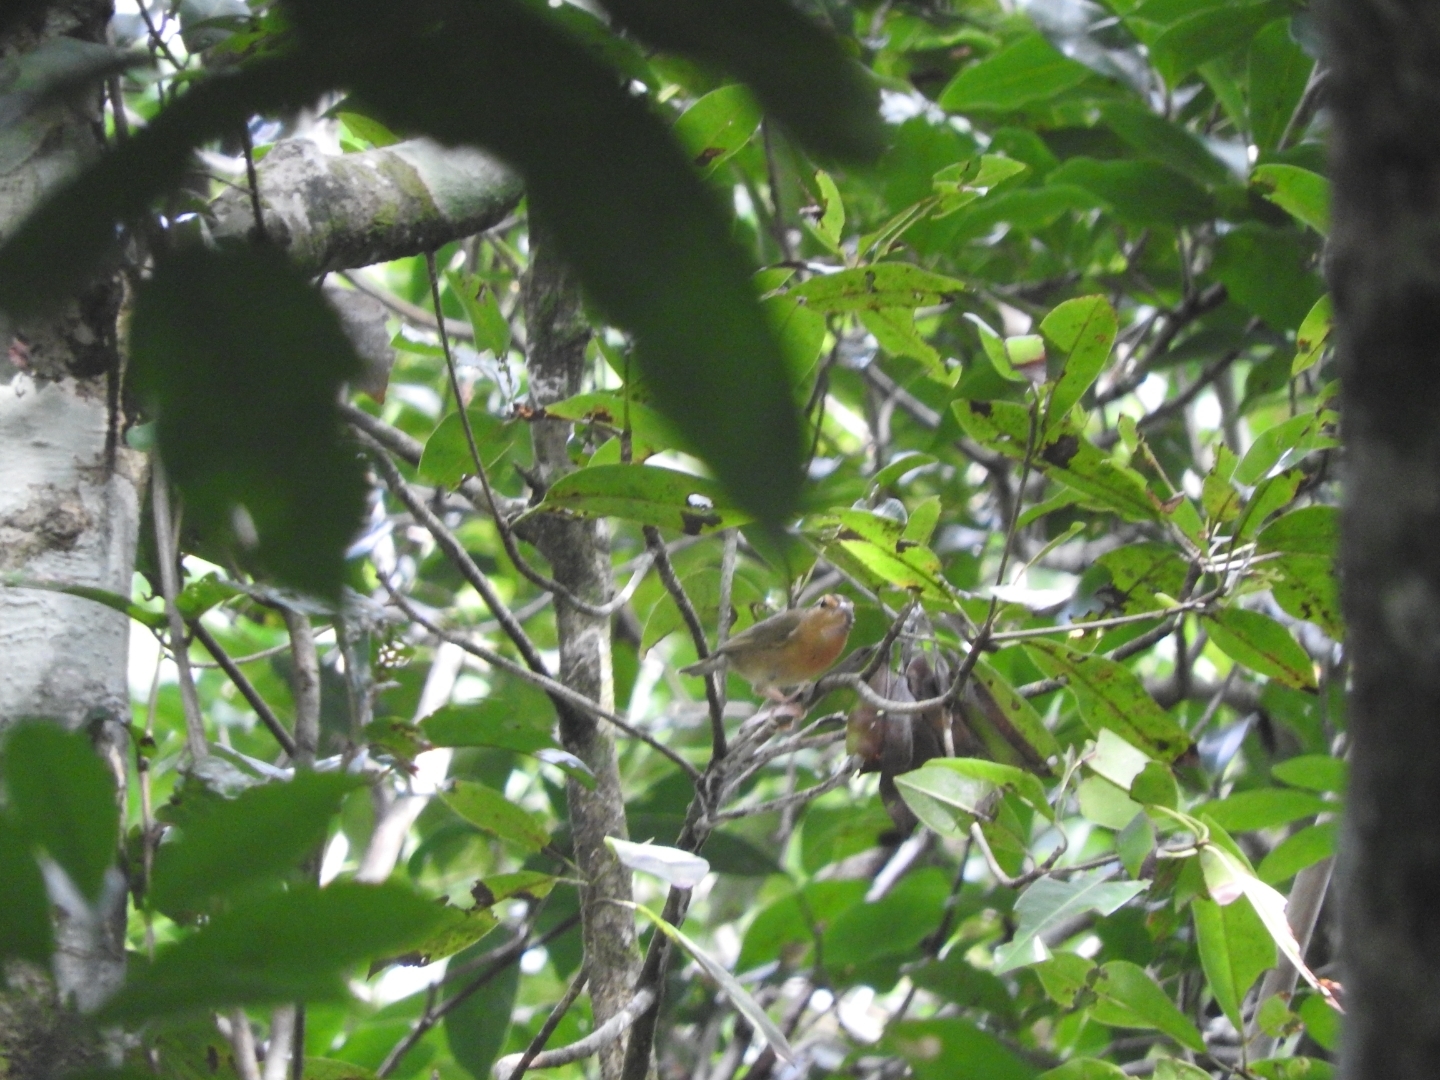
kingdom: Animalia
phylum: Chordata
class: Aves
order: Passeriformes
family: Parulidae
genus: Helmitheros
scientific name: Helmitheros vermivorum
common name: Worm-eating warbler
